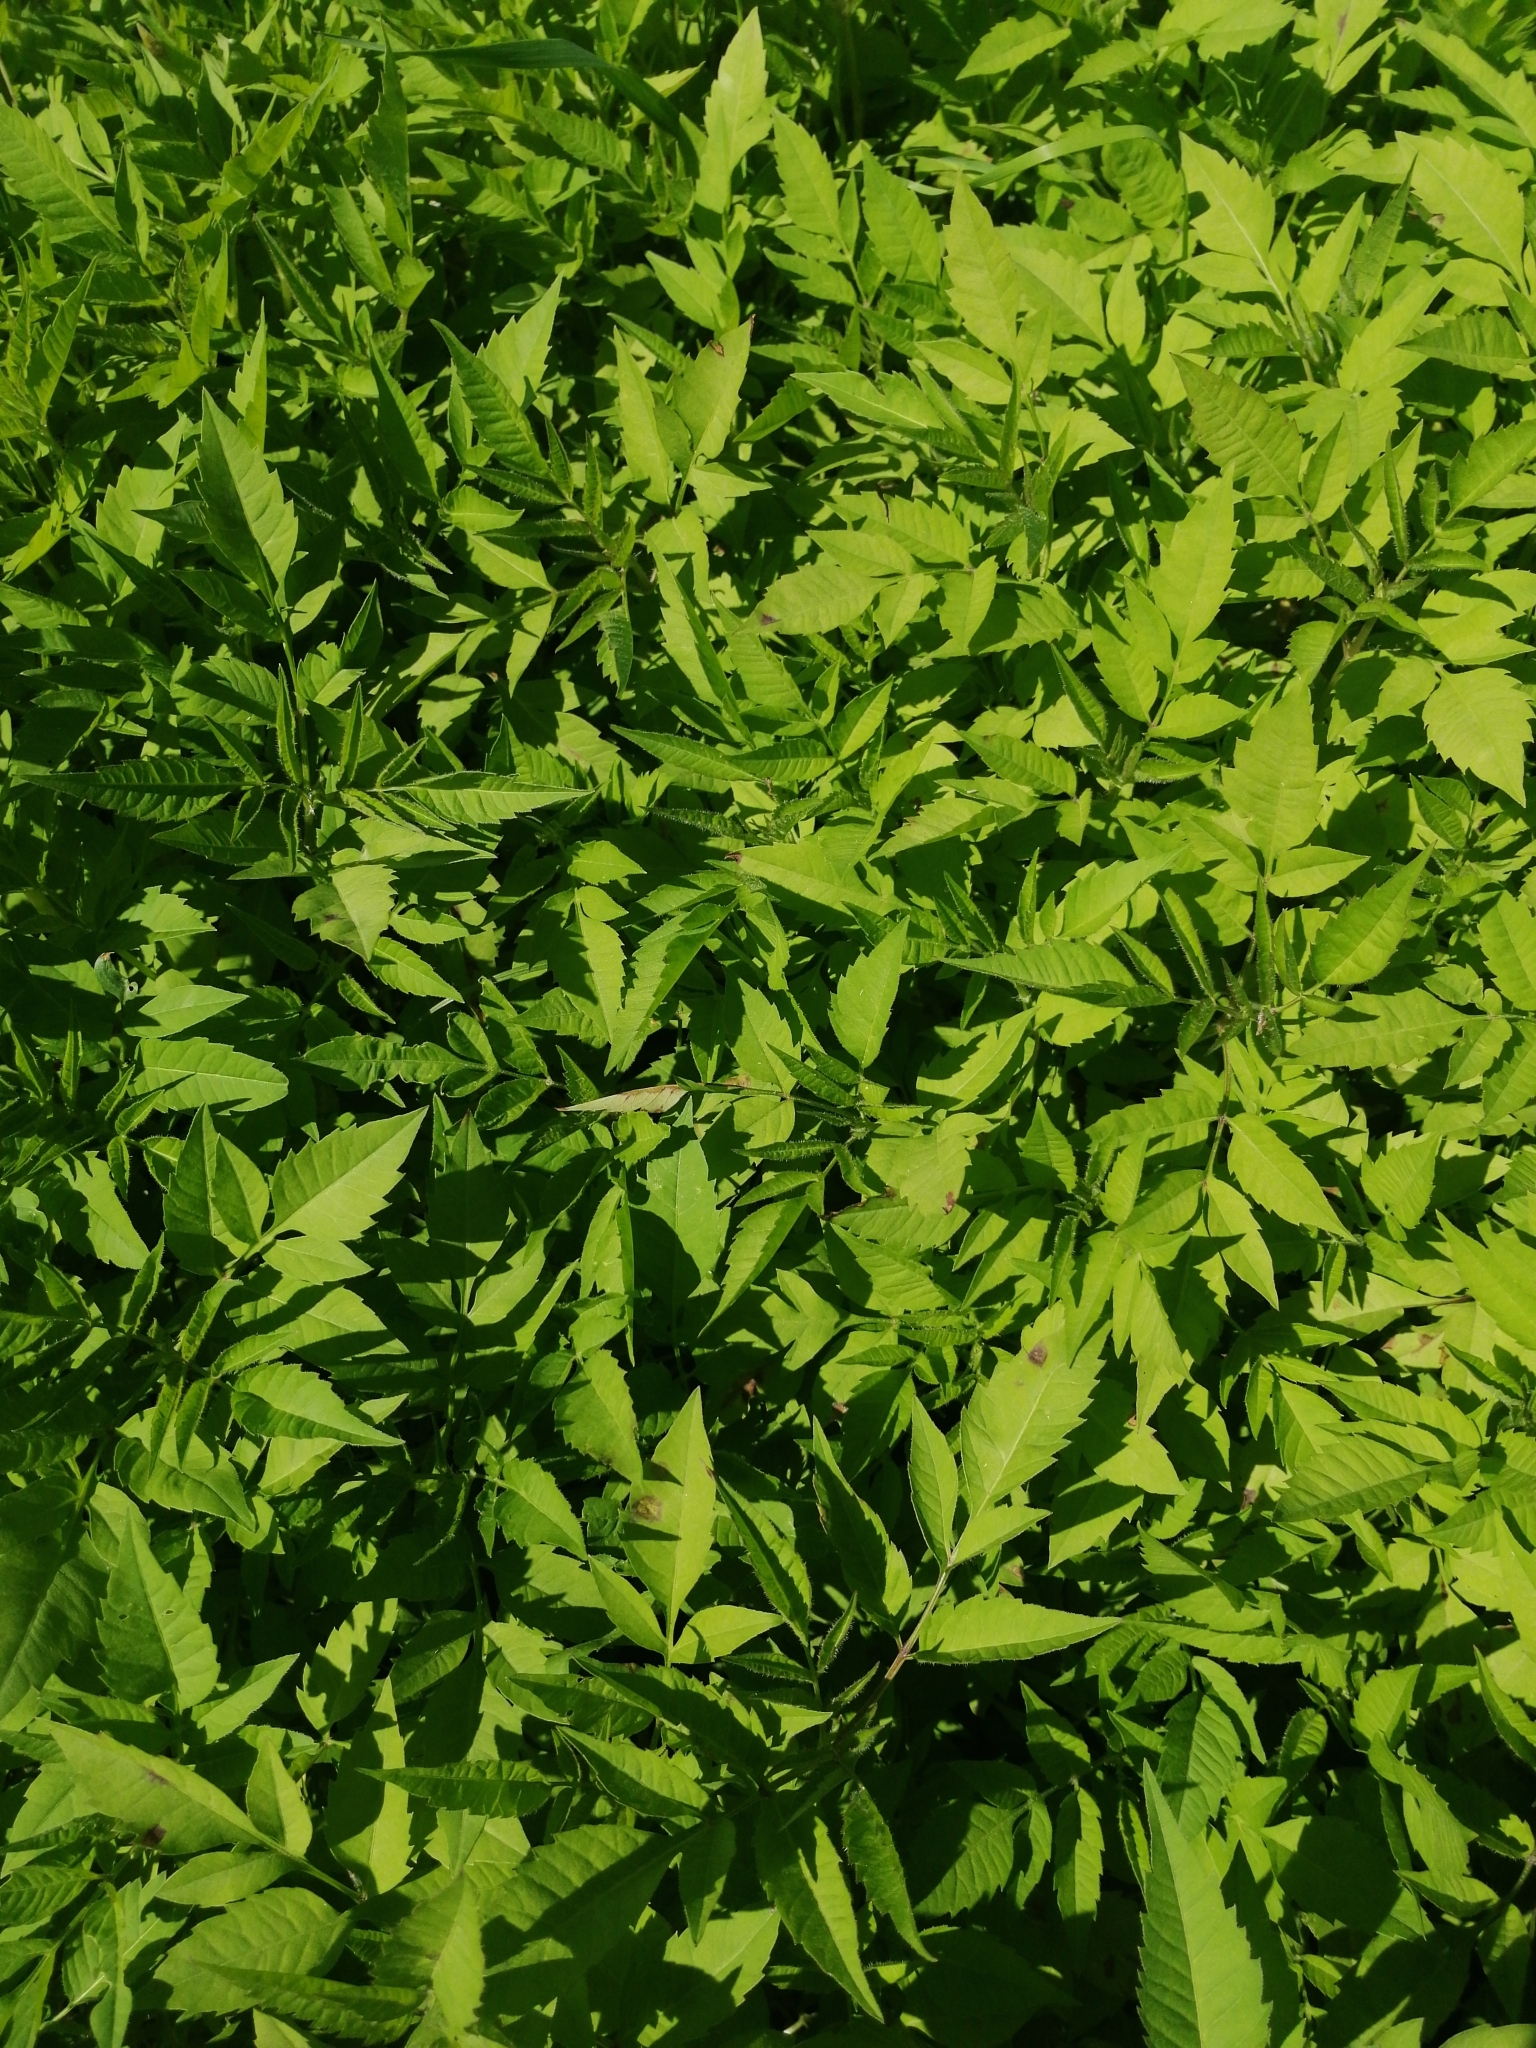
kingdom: Plantae
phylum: Tracheophyta
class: Magnoliopsida
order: Asterales
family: Asteraceae
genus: Bidens
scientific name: Bidens frondosa
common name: Beggarticks
